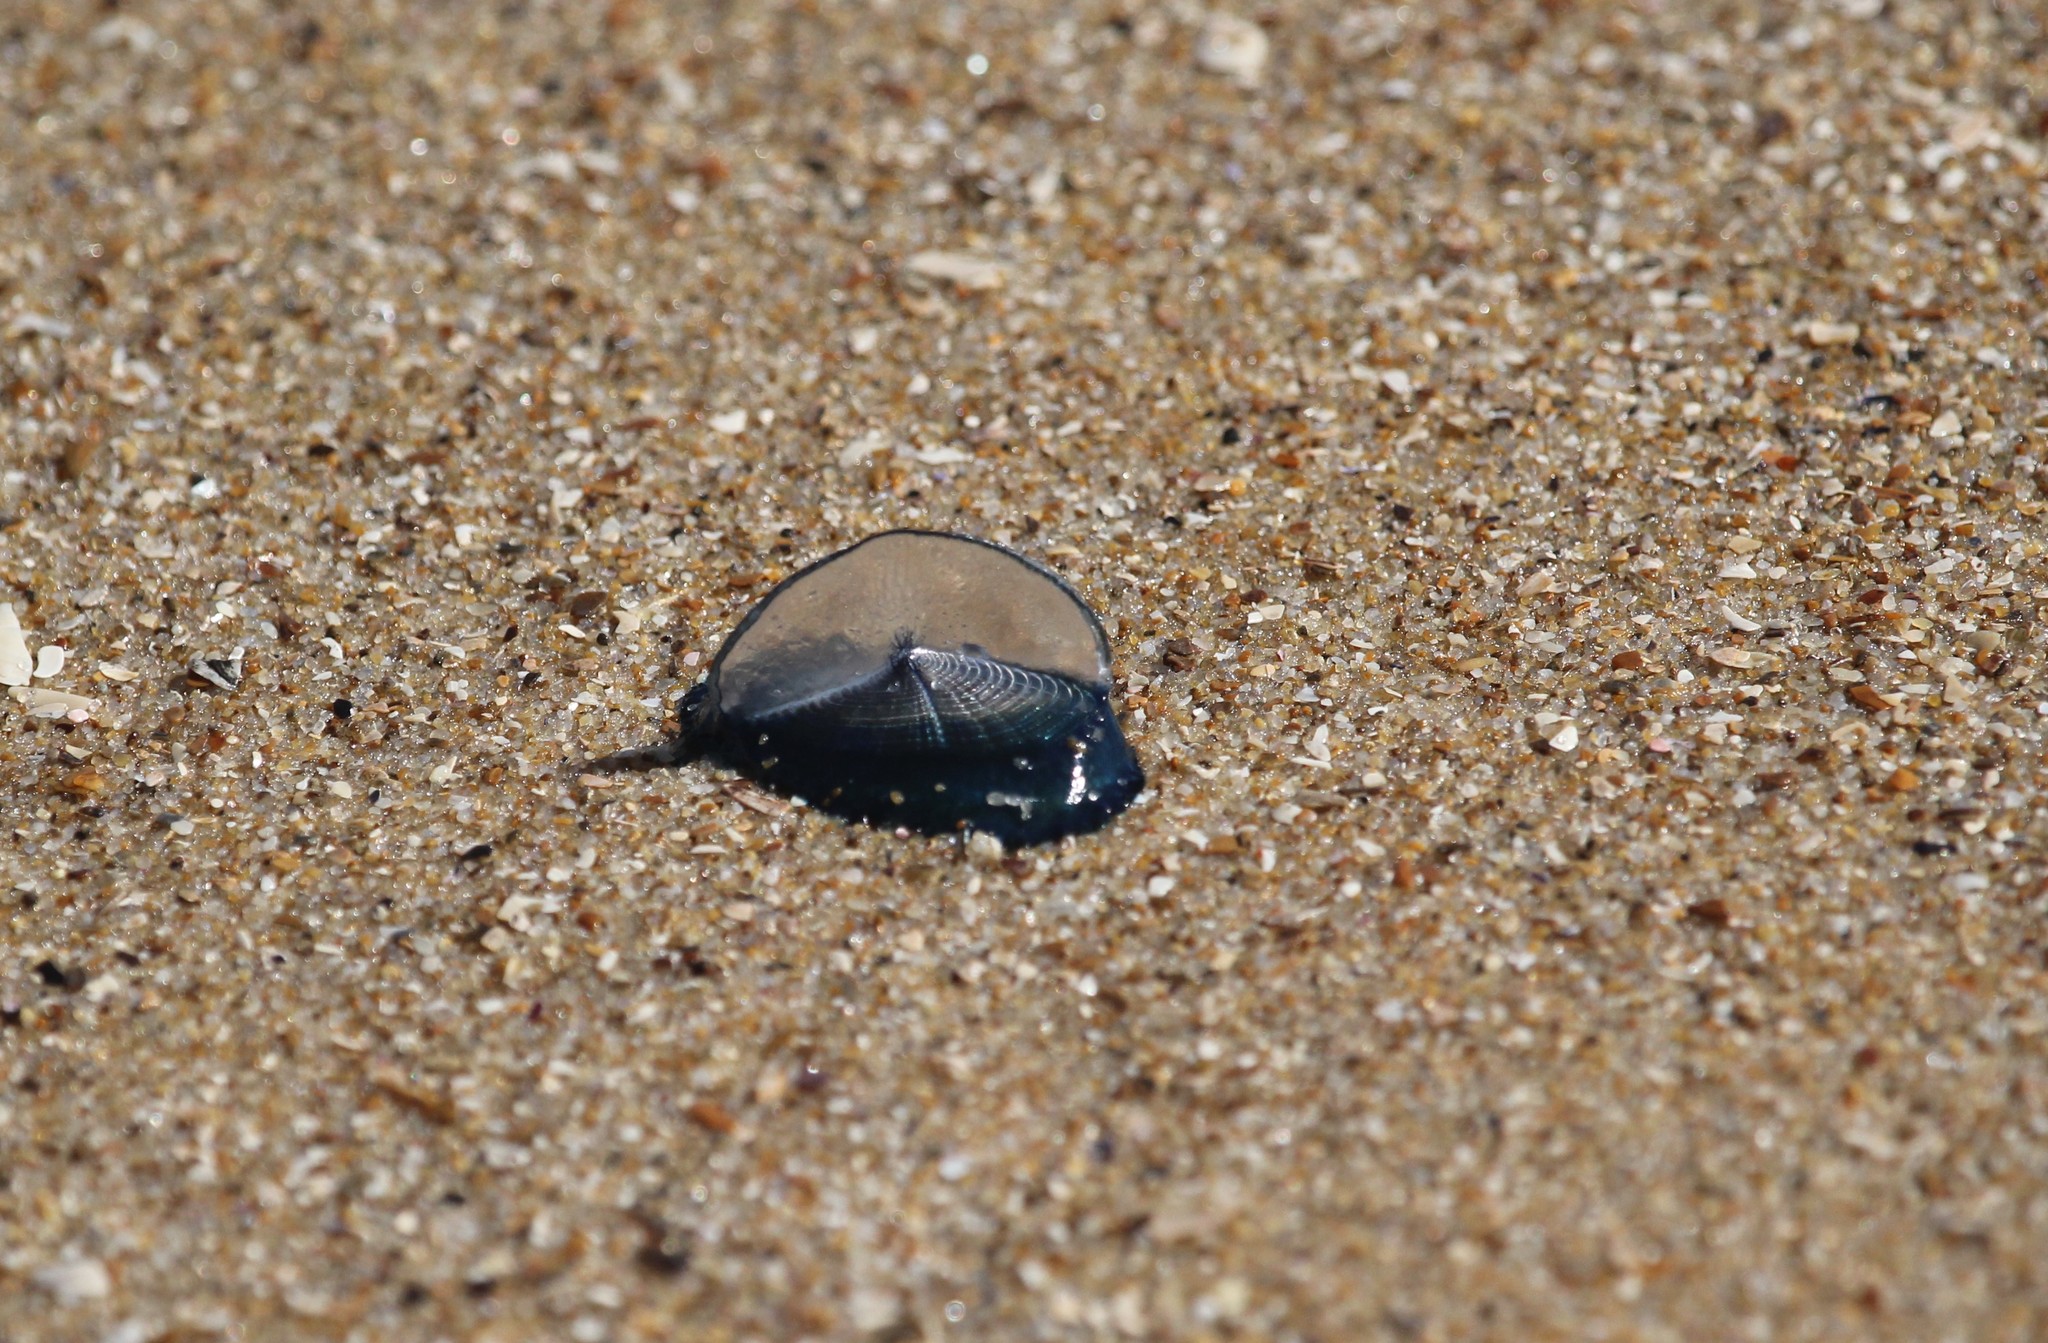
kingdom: Animalia
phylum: Cnidaria
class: Hydrozoa
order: Anthoathecata
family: Porpitidae
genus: Velella
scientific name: Velella velella
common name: By-the-wind-sailor
